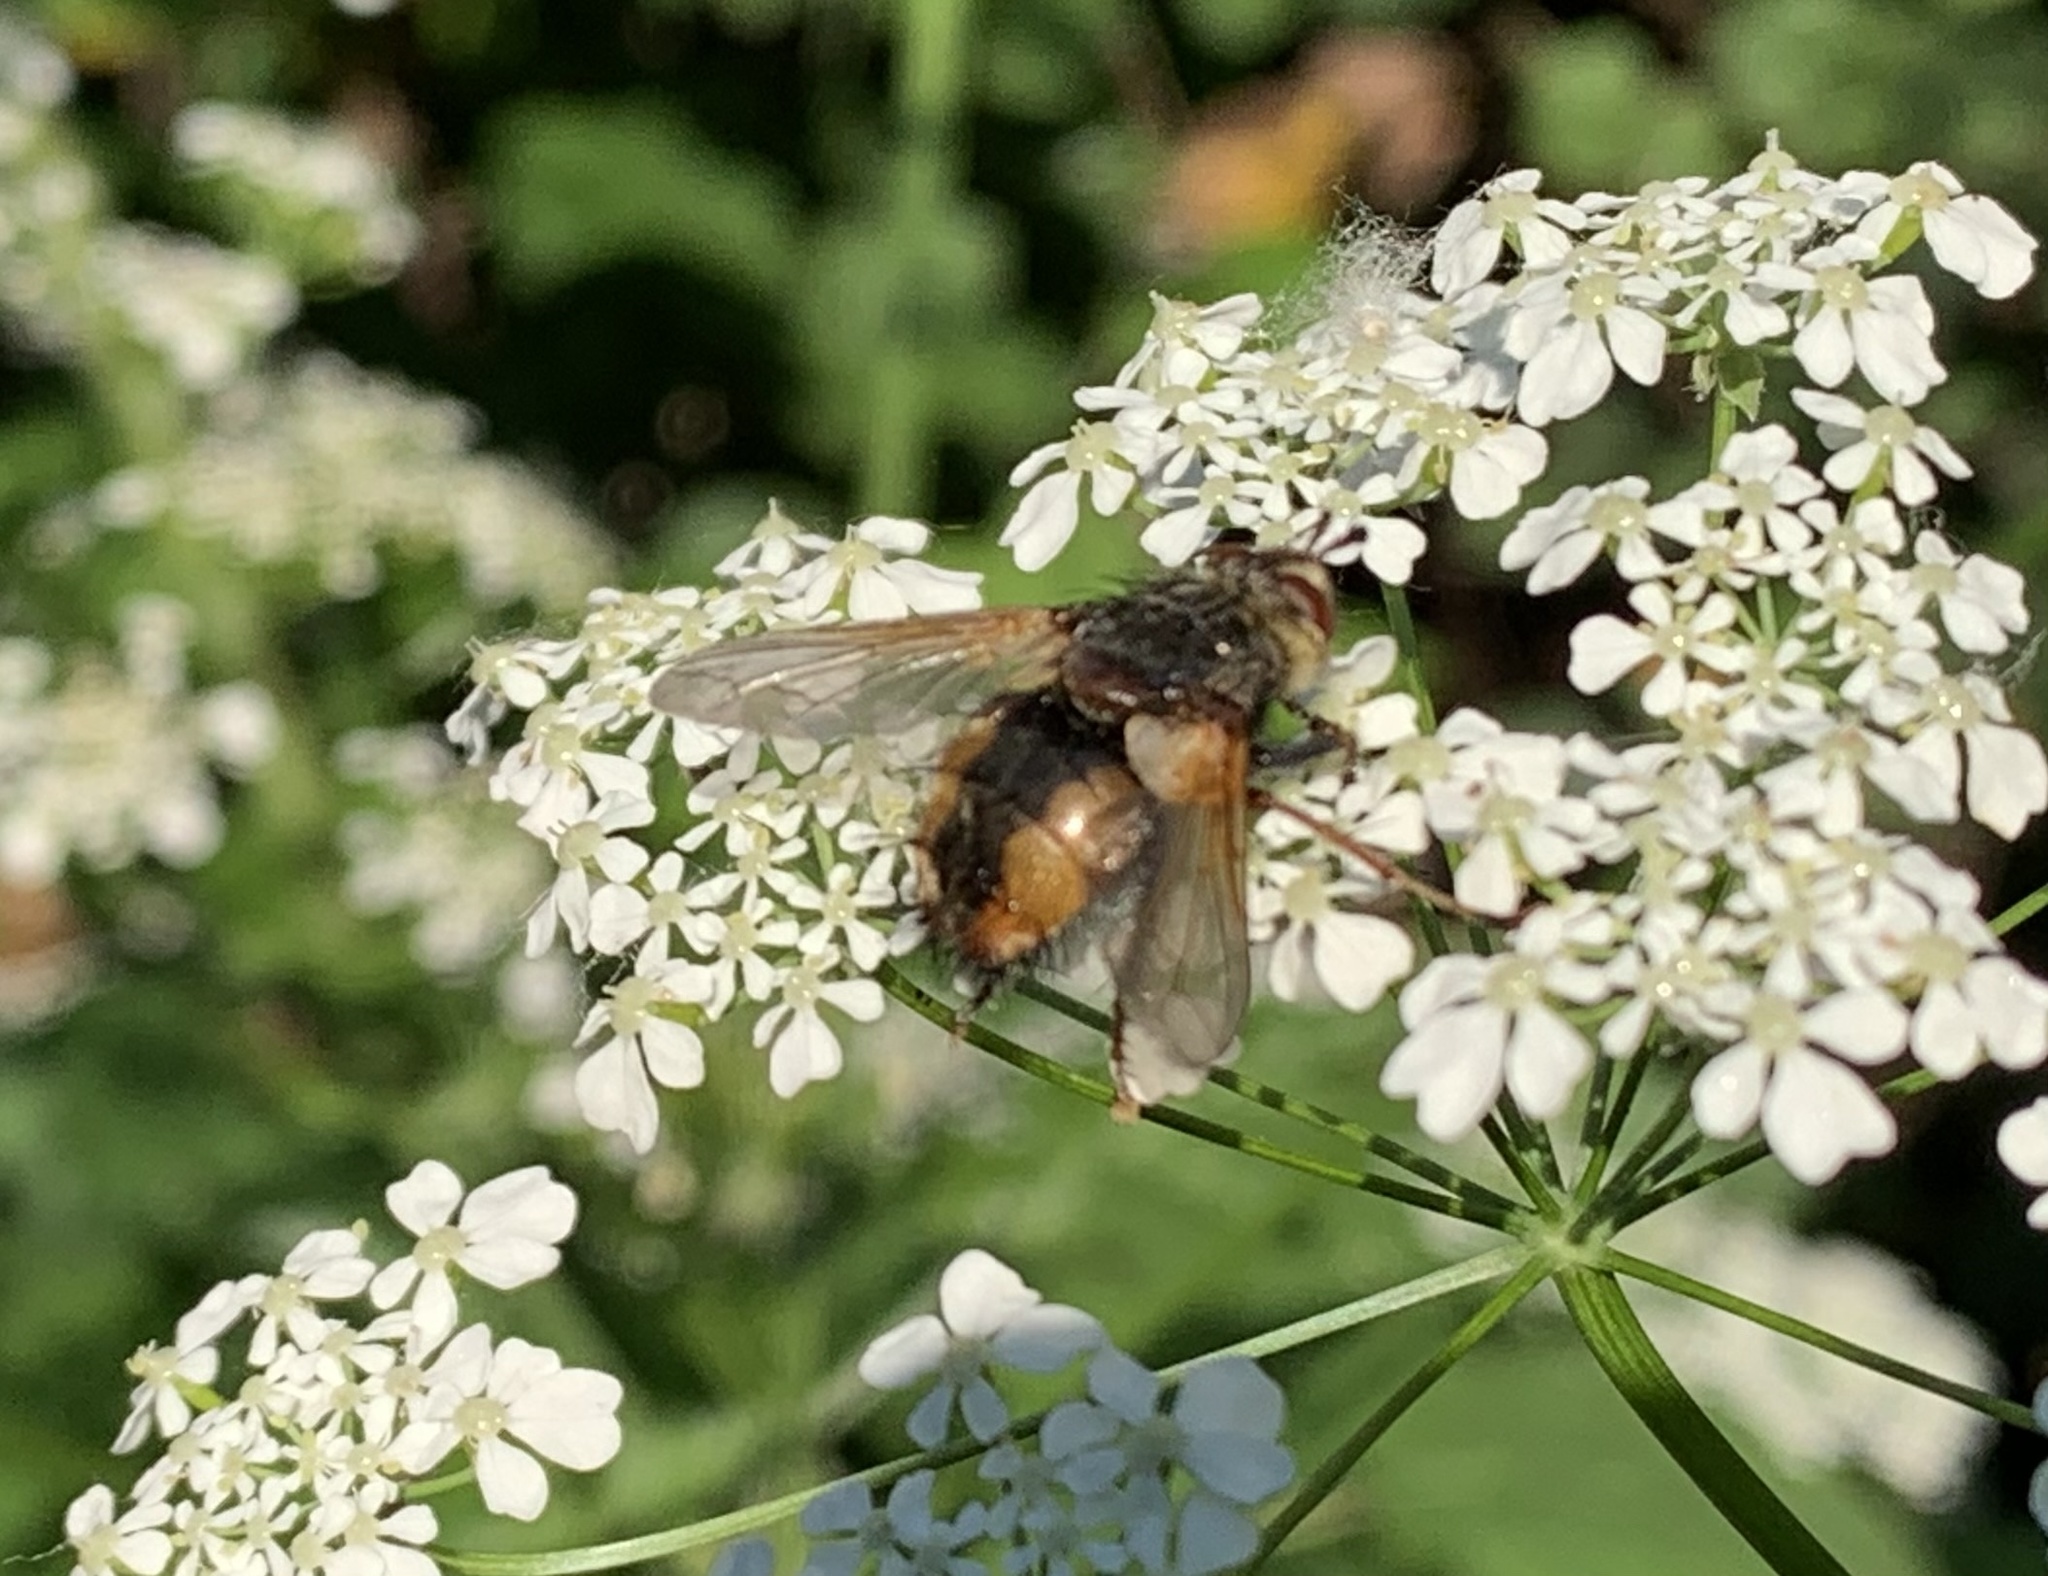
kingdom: Animalia
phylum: Arthropoda
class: Insecta
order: Diptera
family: Tachinidae
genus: Tachina
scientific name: Tachina fera
